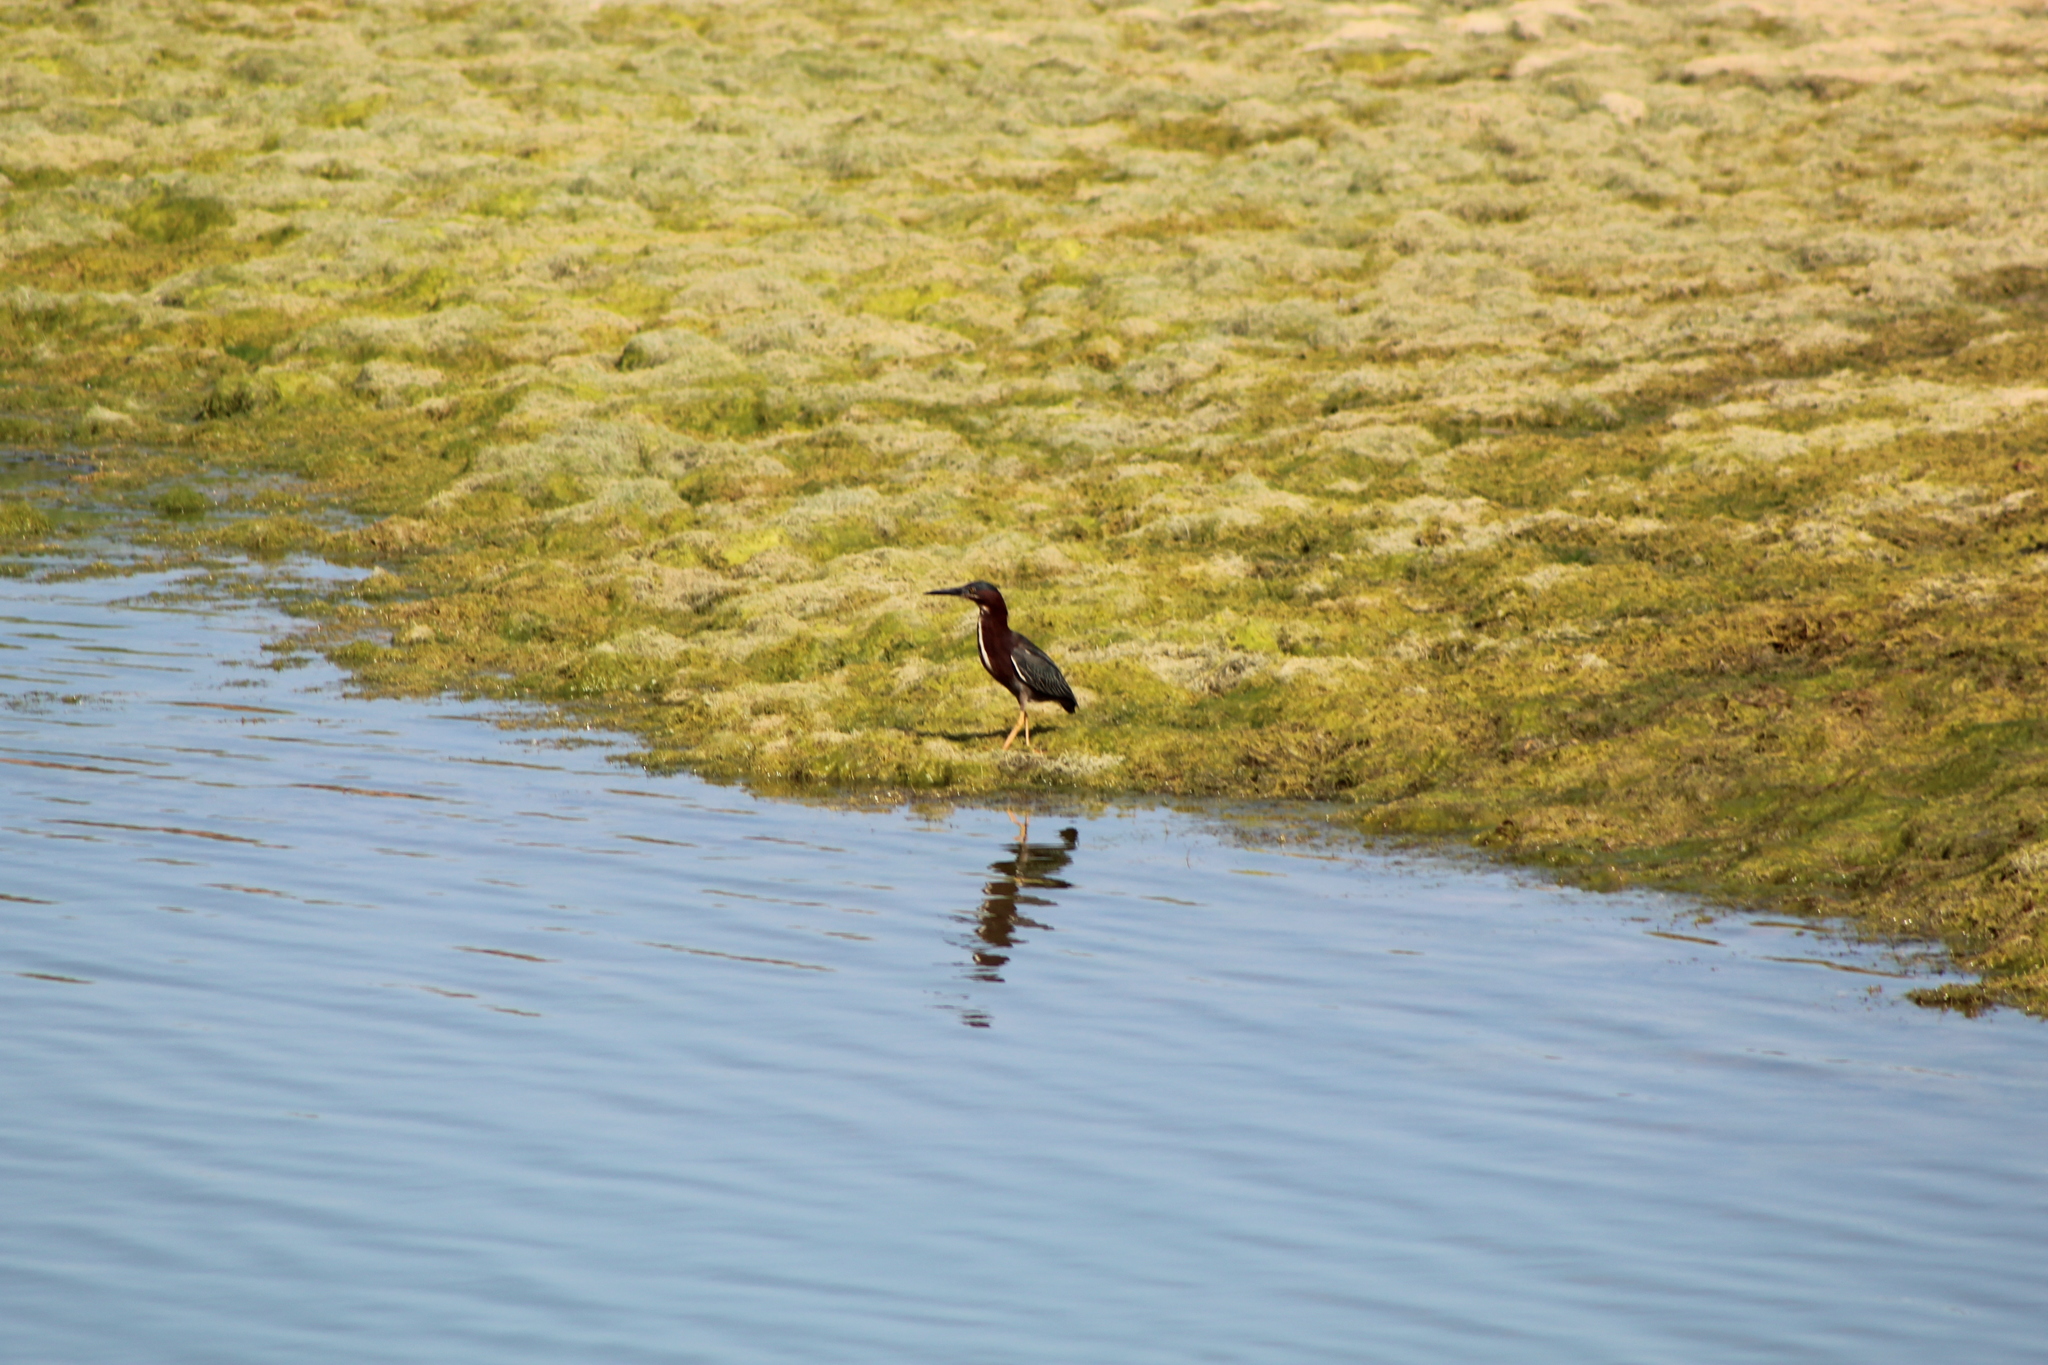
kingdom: Animalia
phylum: Chordata
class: Aves
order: Pelecaniformes
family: Ardeidae
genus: Butorides
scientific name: Butorides virescens
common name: Green heron
